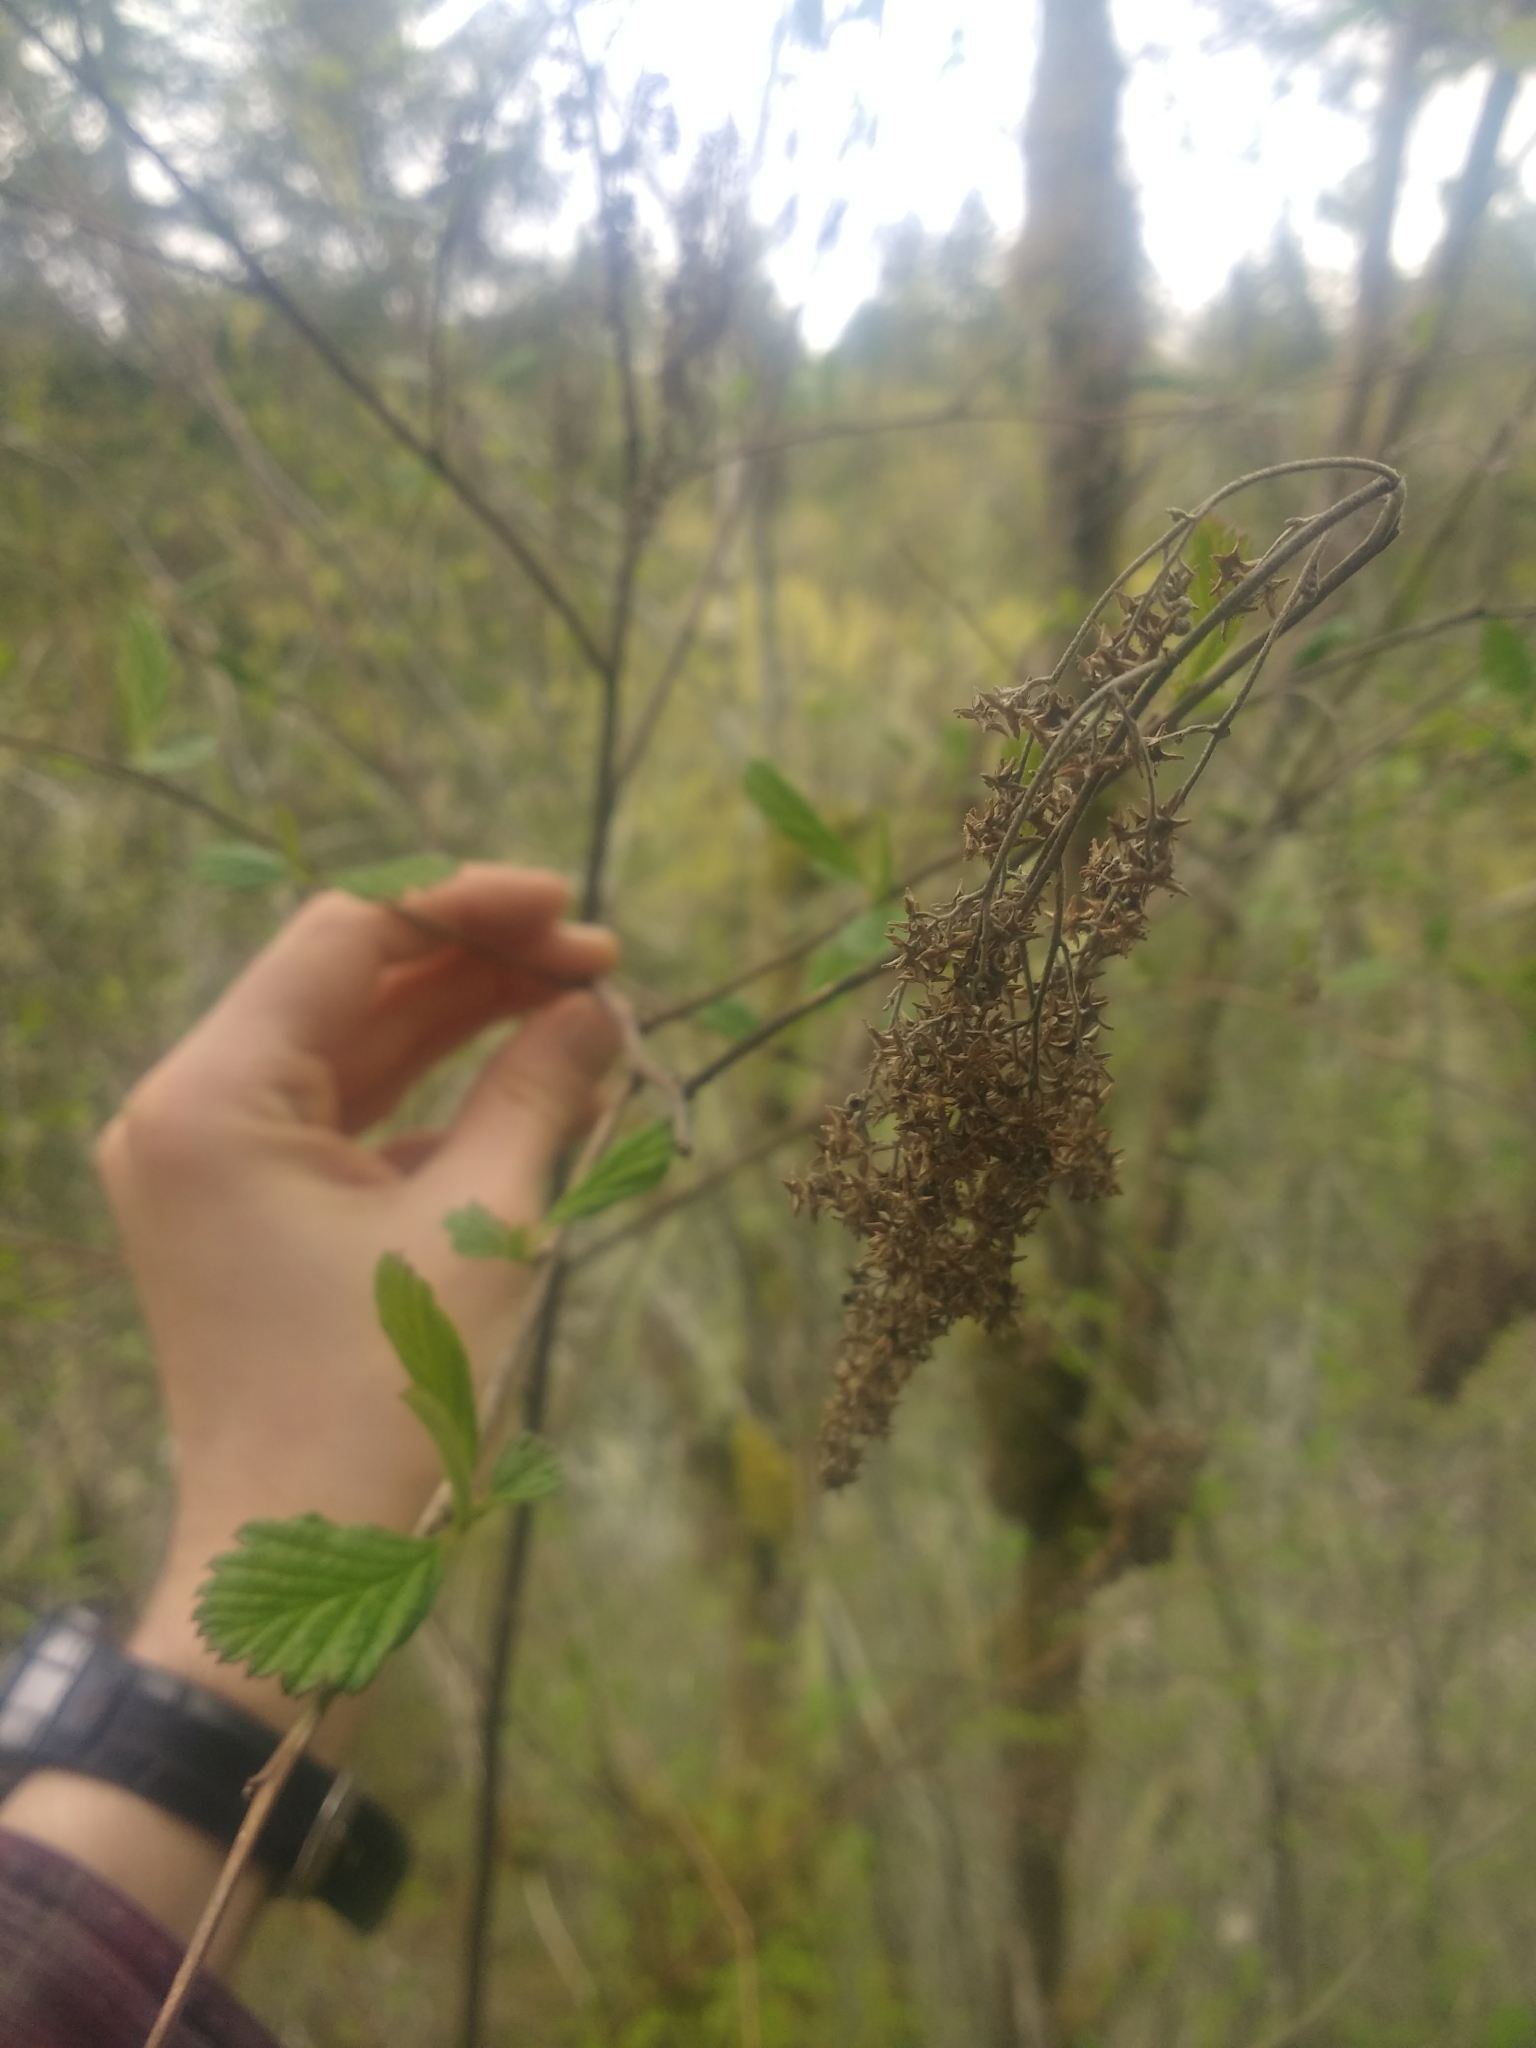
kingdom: Plantae
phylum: Tracheophyta
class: Magnoliopsida
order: Rosales
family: Rosaceae
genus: Holodiscus
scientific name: Holodiscus discolor
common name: Oceanspray
